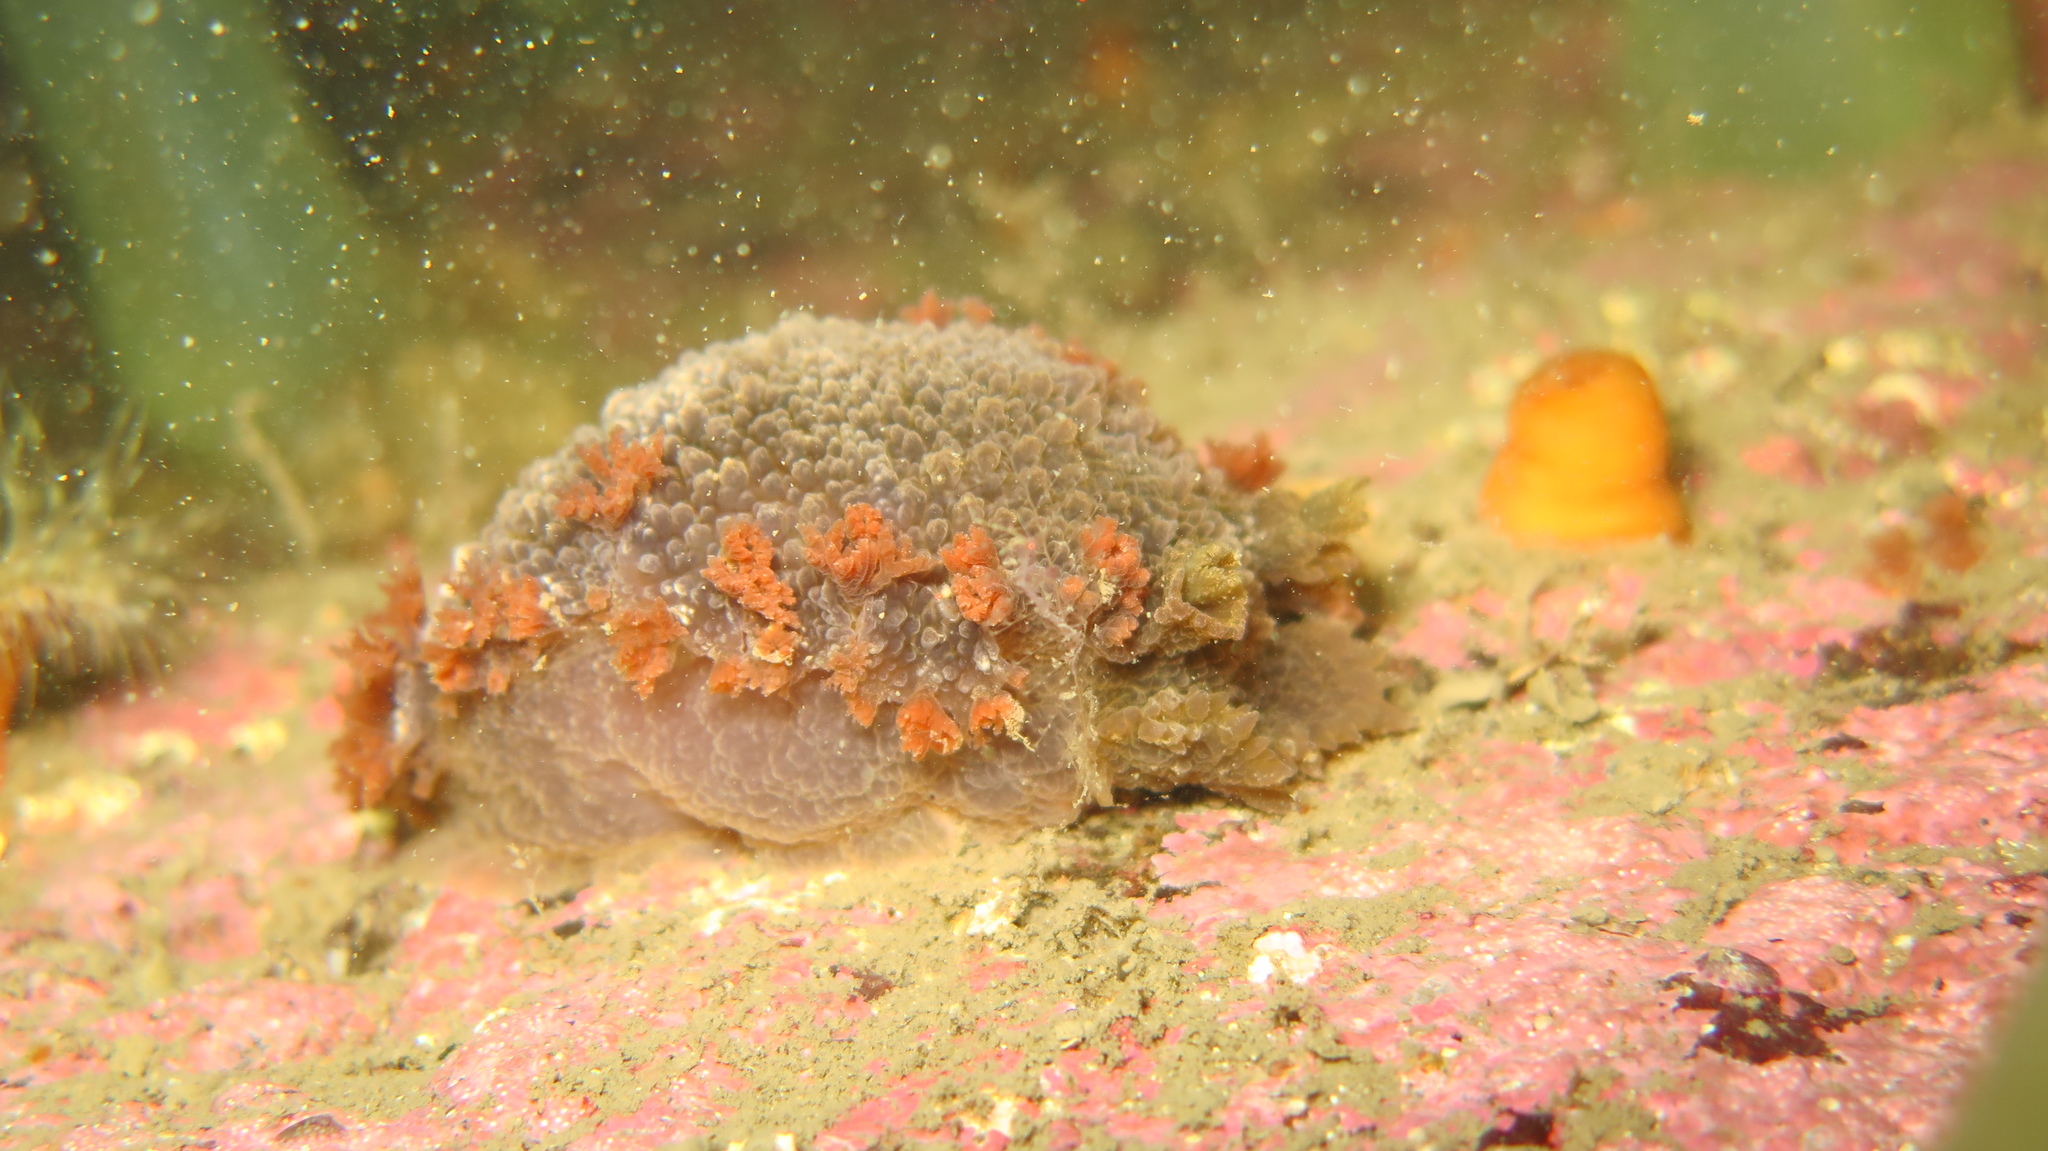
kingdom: Animalia
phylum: Mollusca
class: Gastropoda
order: Nudibranchia
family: Tritoniidae
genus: Tritonia
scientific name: Tritonia hombergii
